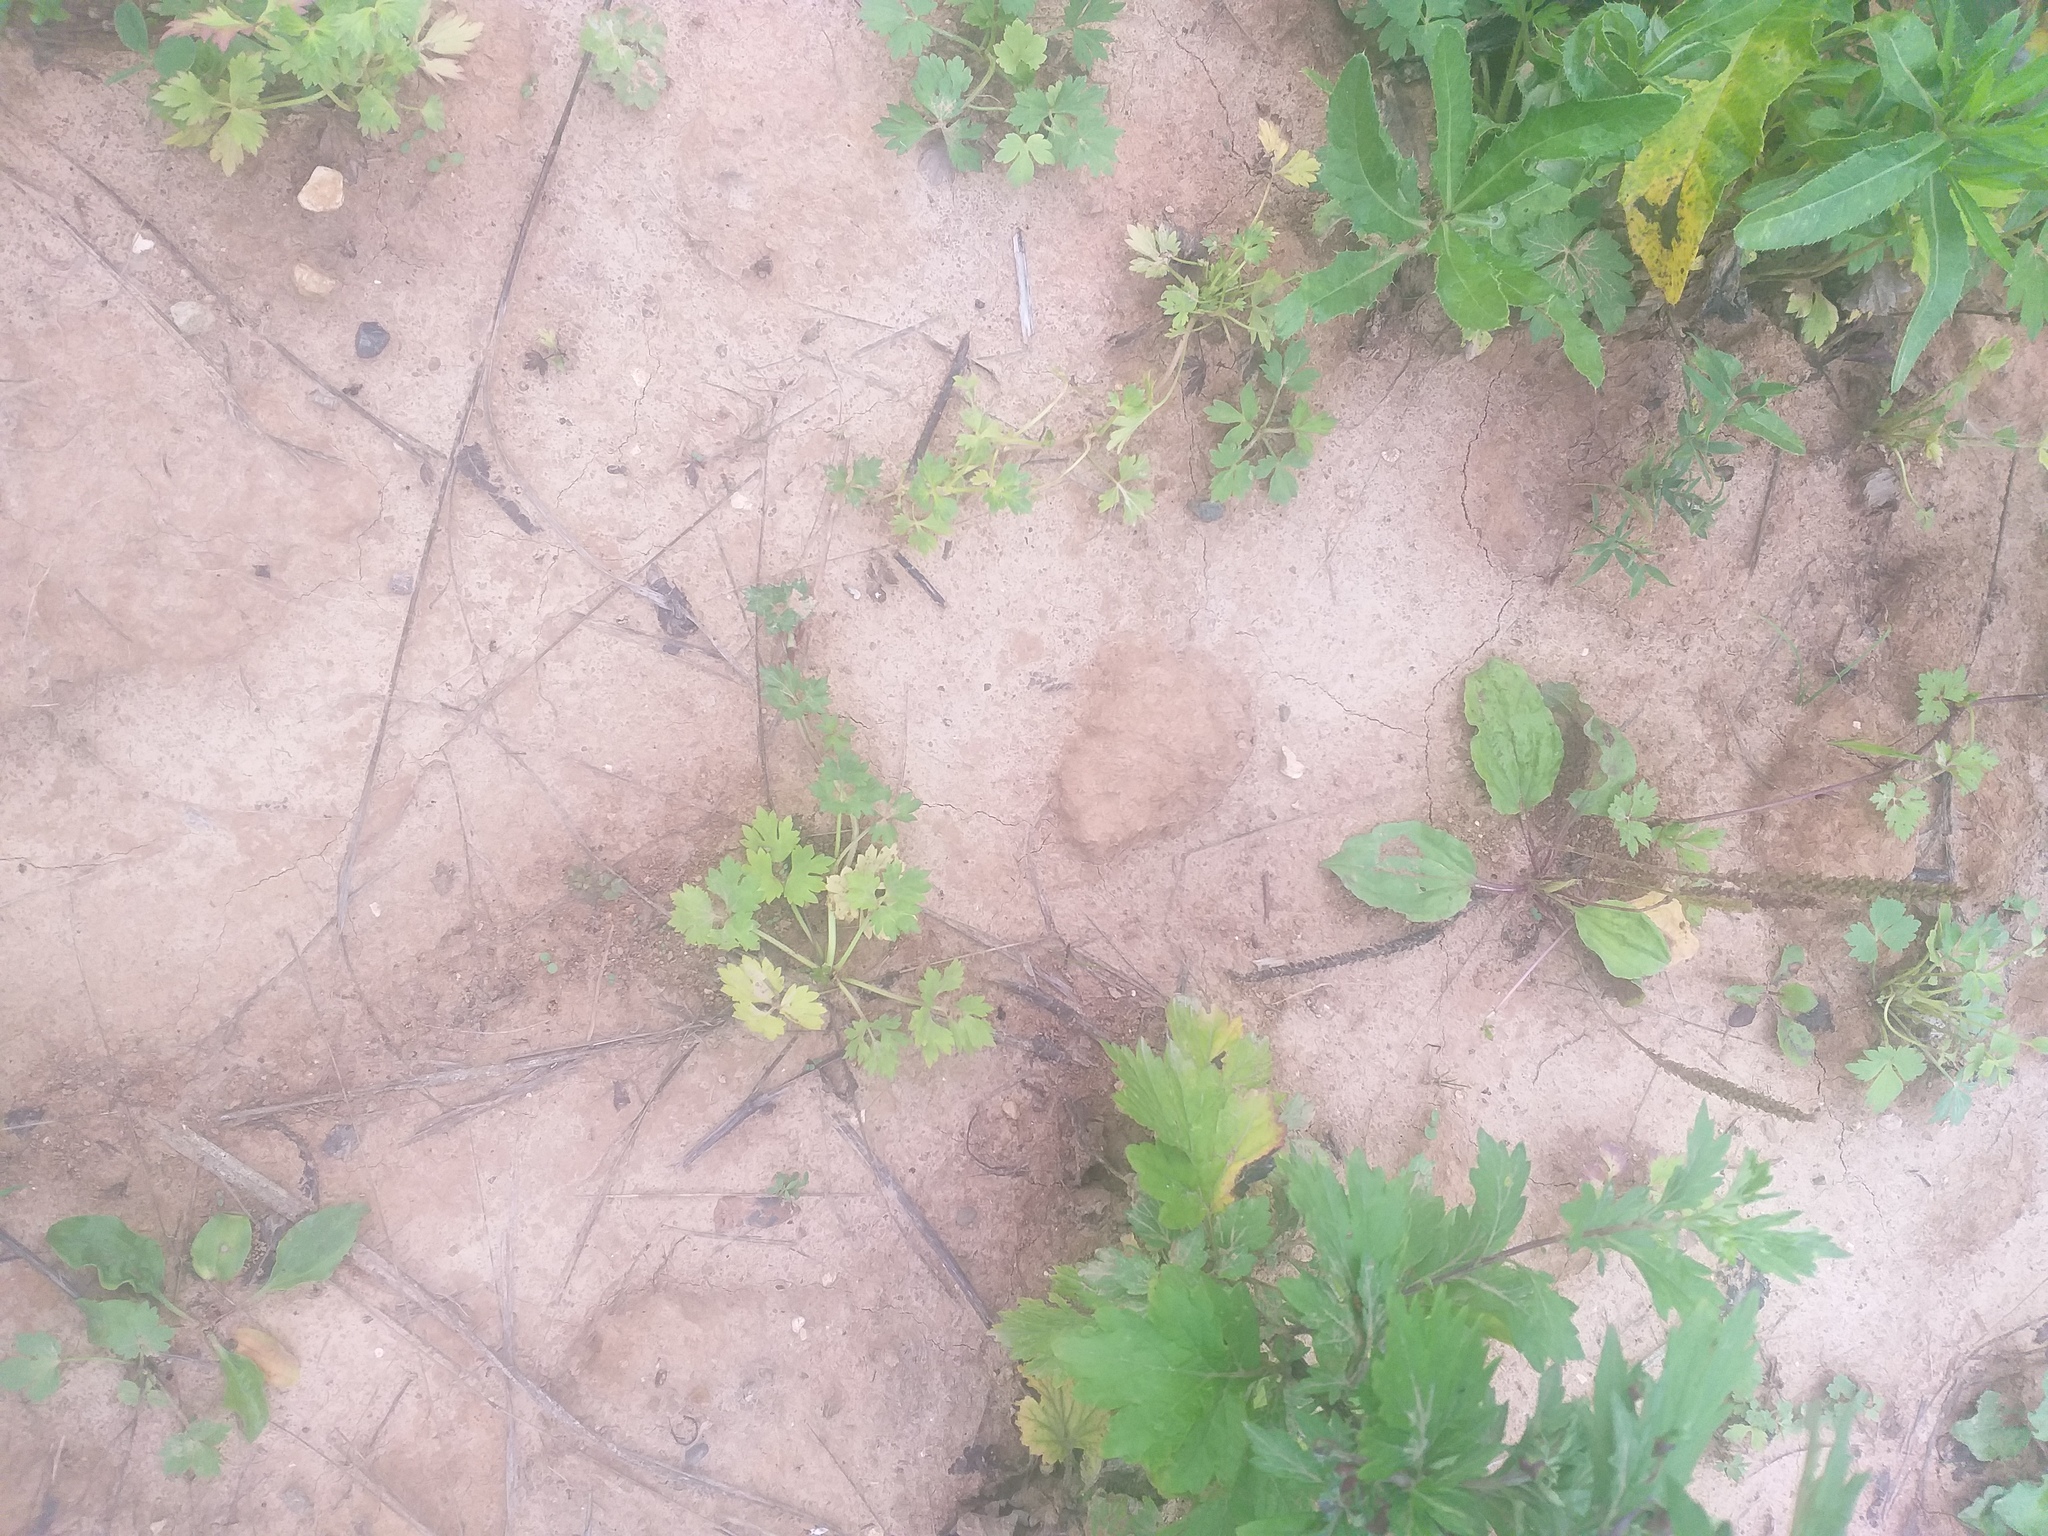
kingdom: Plantae
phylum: Tracheophyta
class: Magnoliopsida
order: Ranunculales
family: Ranunculaceae
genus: Ranunculus
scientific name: Ranunculus repens
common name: Creeping buttercup
